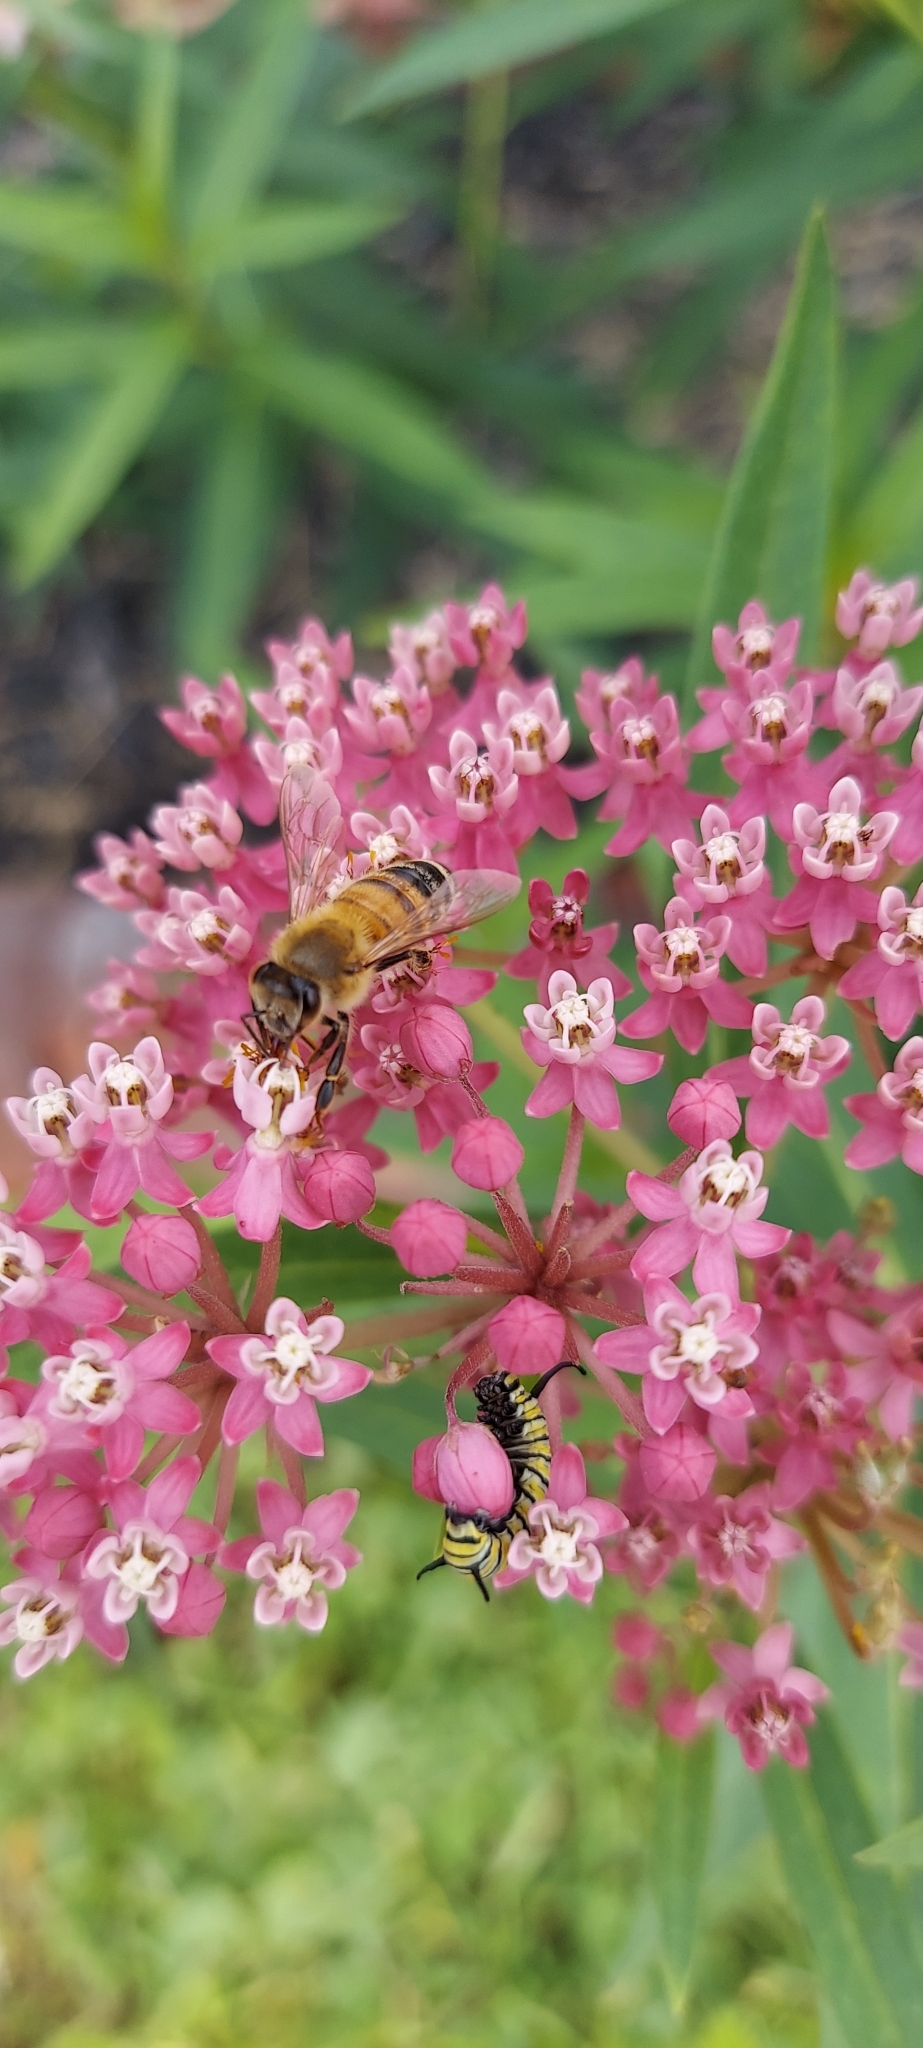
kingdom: Animalia
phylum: Arthropoda
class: Insecta
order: Hymenoptera
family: Apidae
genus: Apis
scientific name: Apis mellifera
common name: Honey bee
